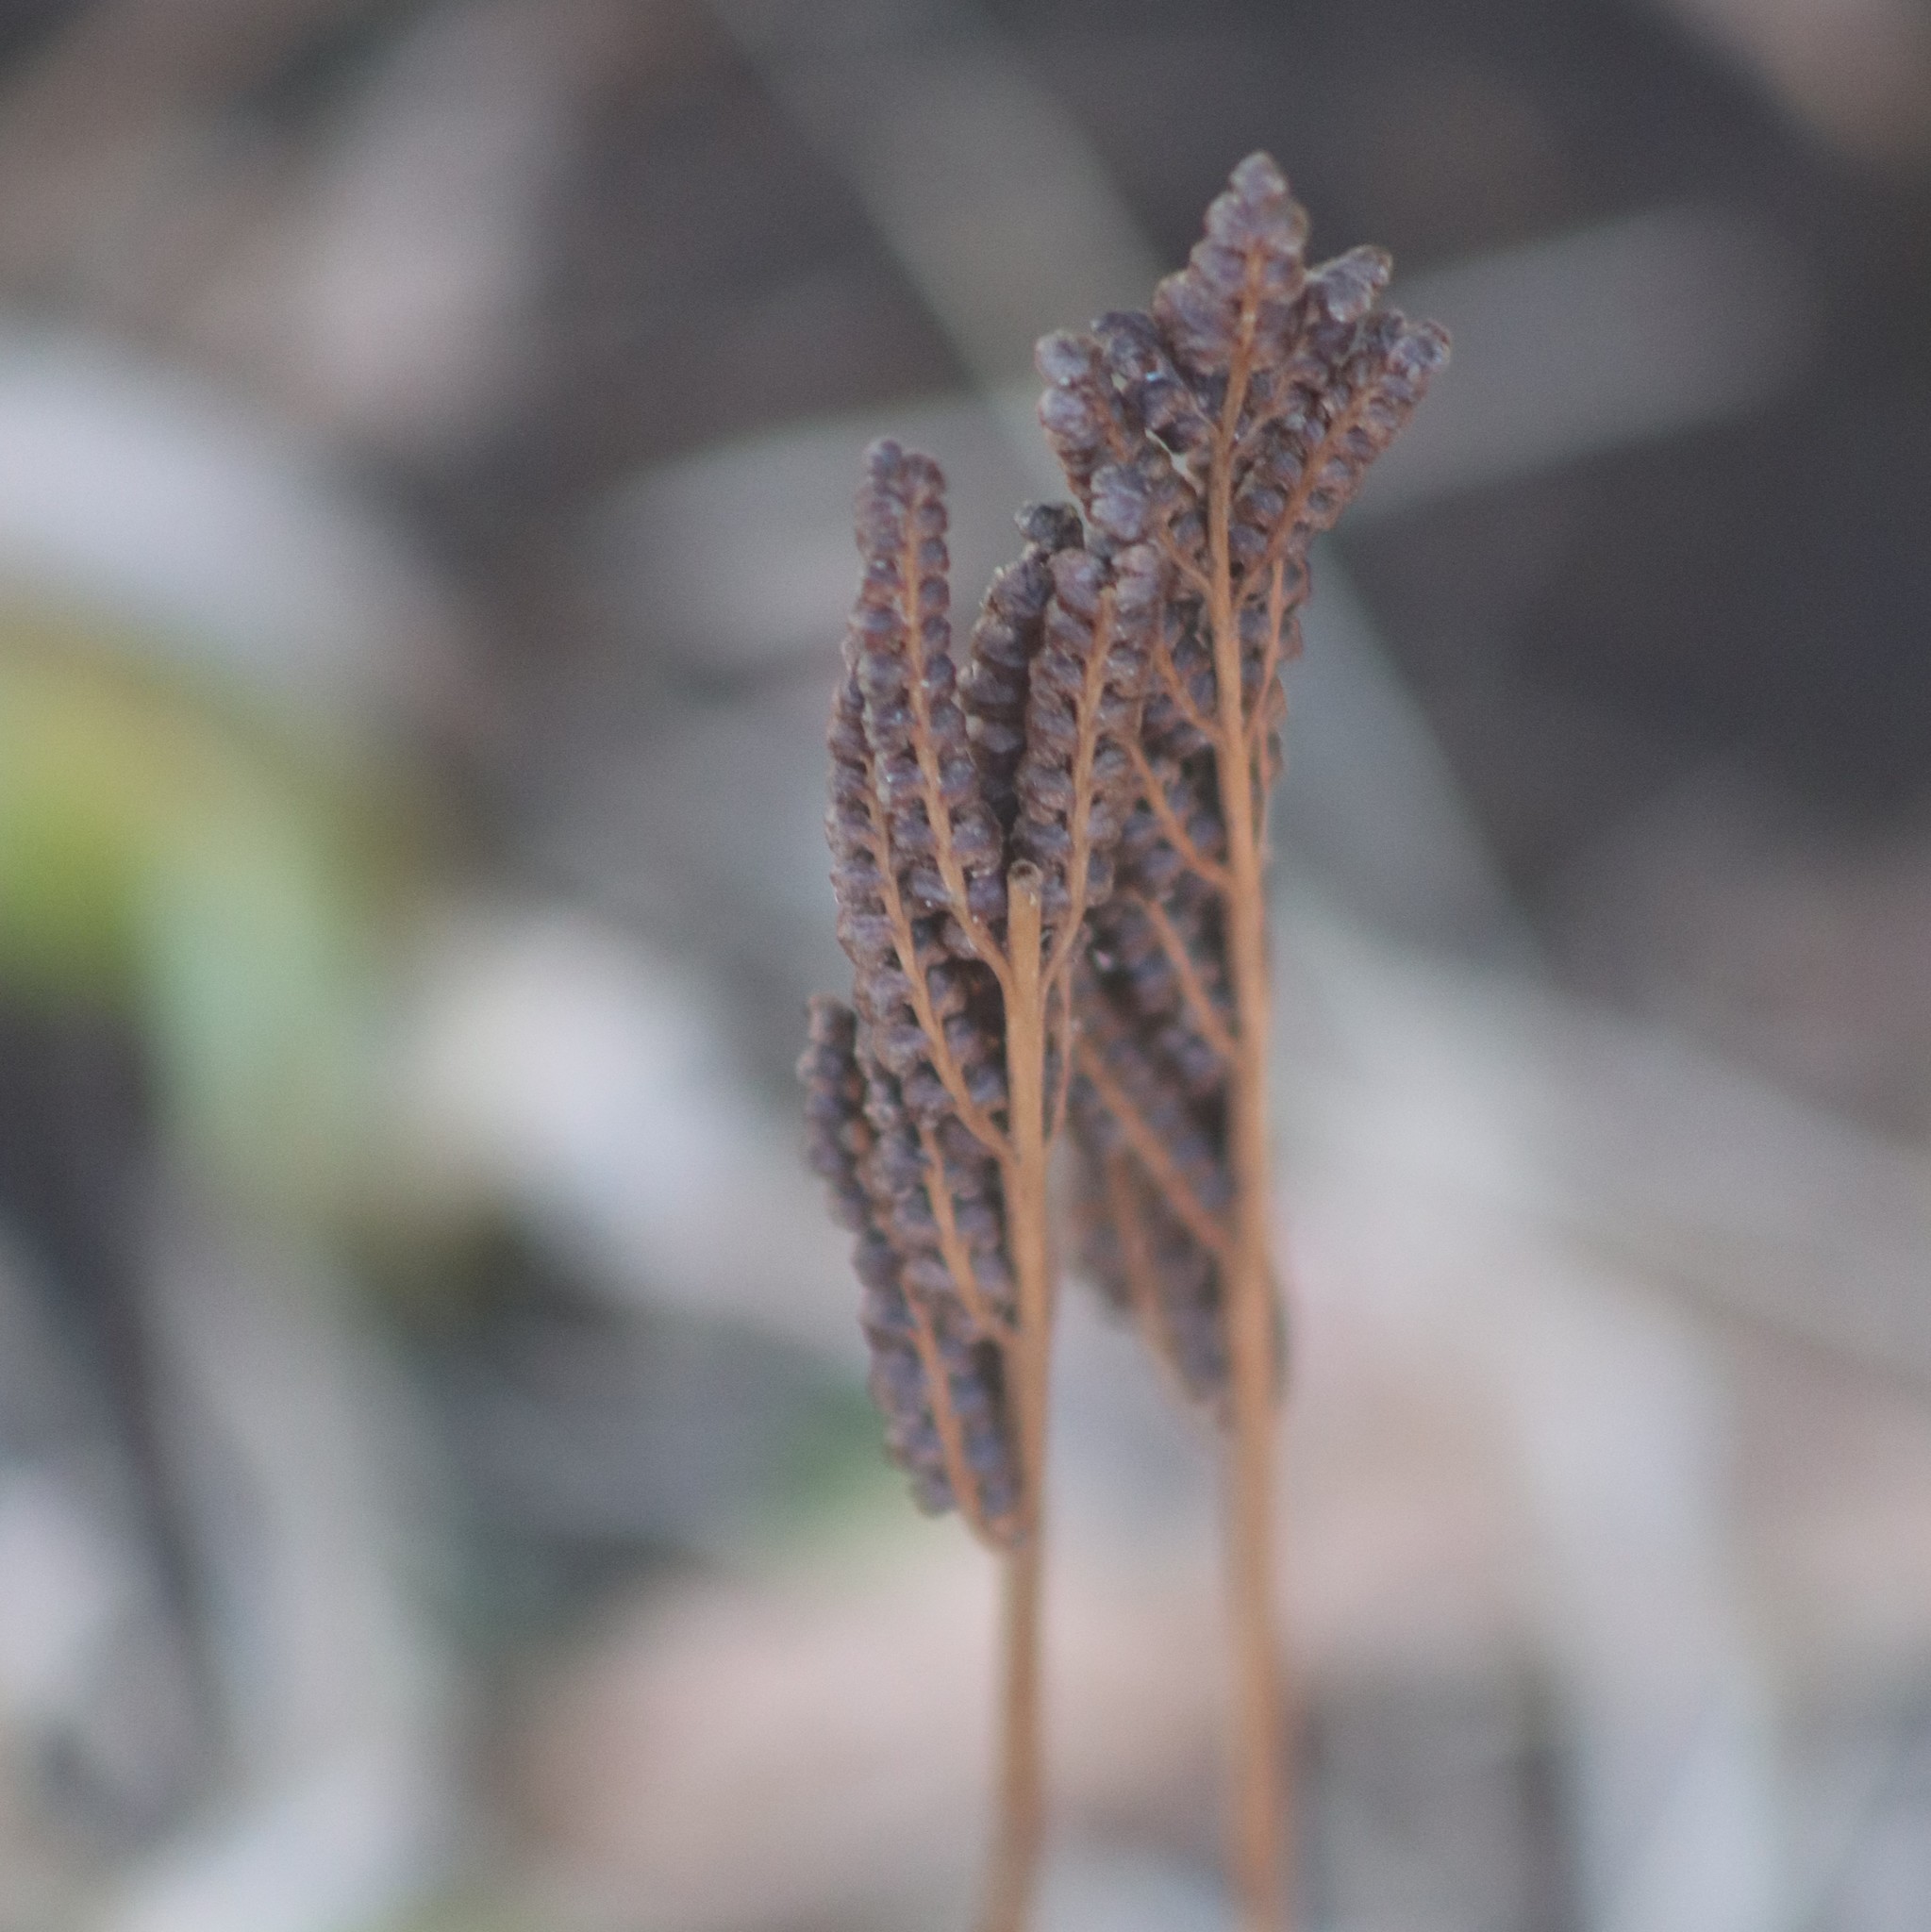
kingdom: Plantae
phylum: Tracheophyta
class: Polypodiopsida
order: Polypodiales
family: Onocleaceae
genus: Onoclea
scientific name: Onoclea sensibilis
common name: Sensitive fern
